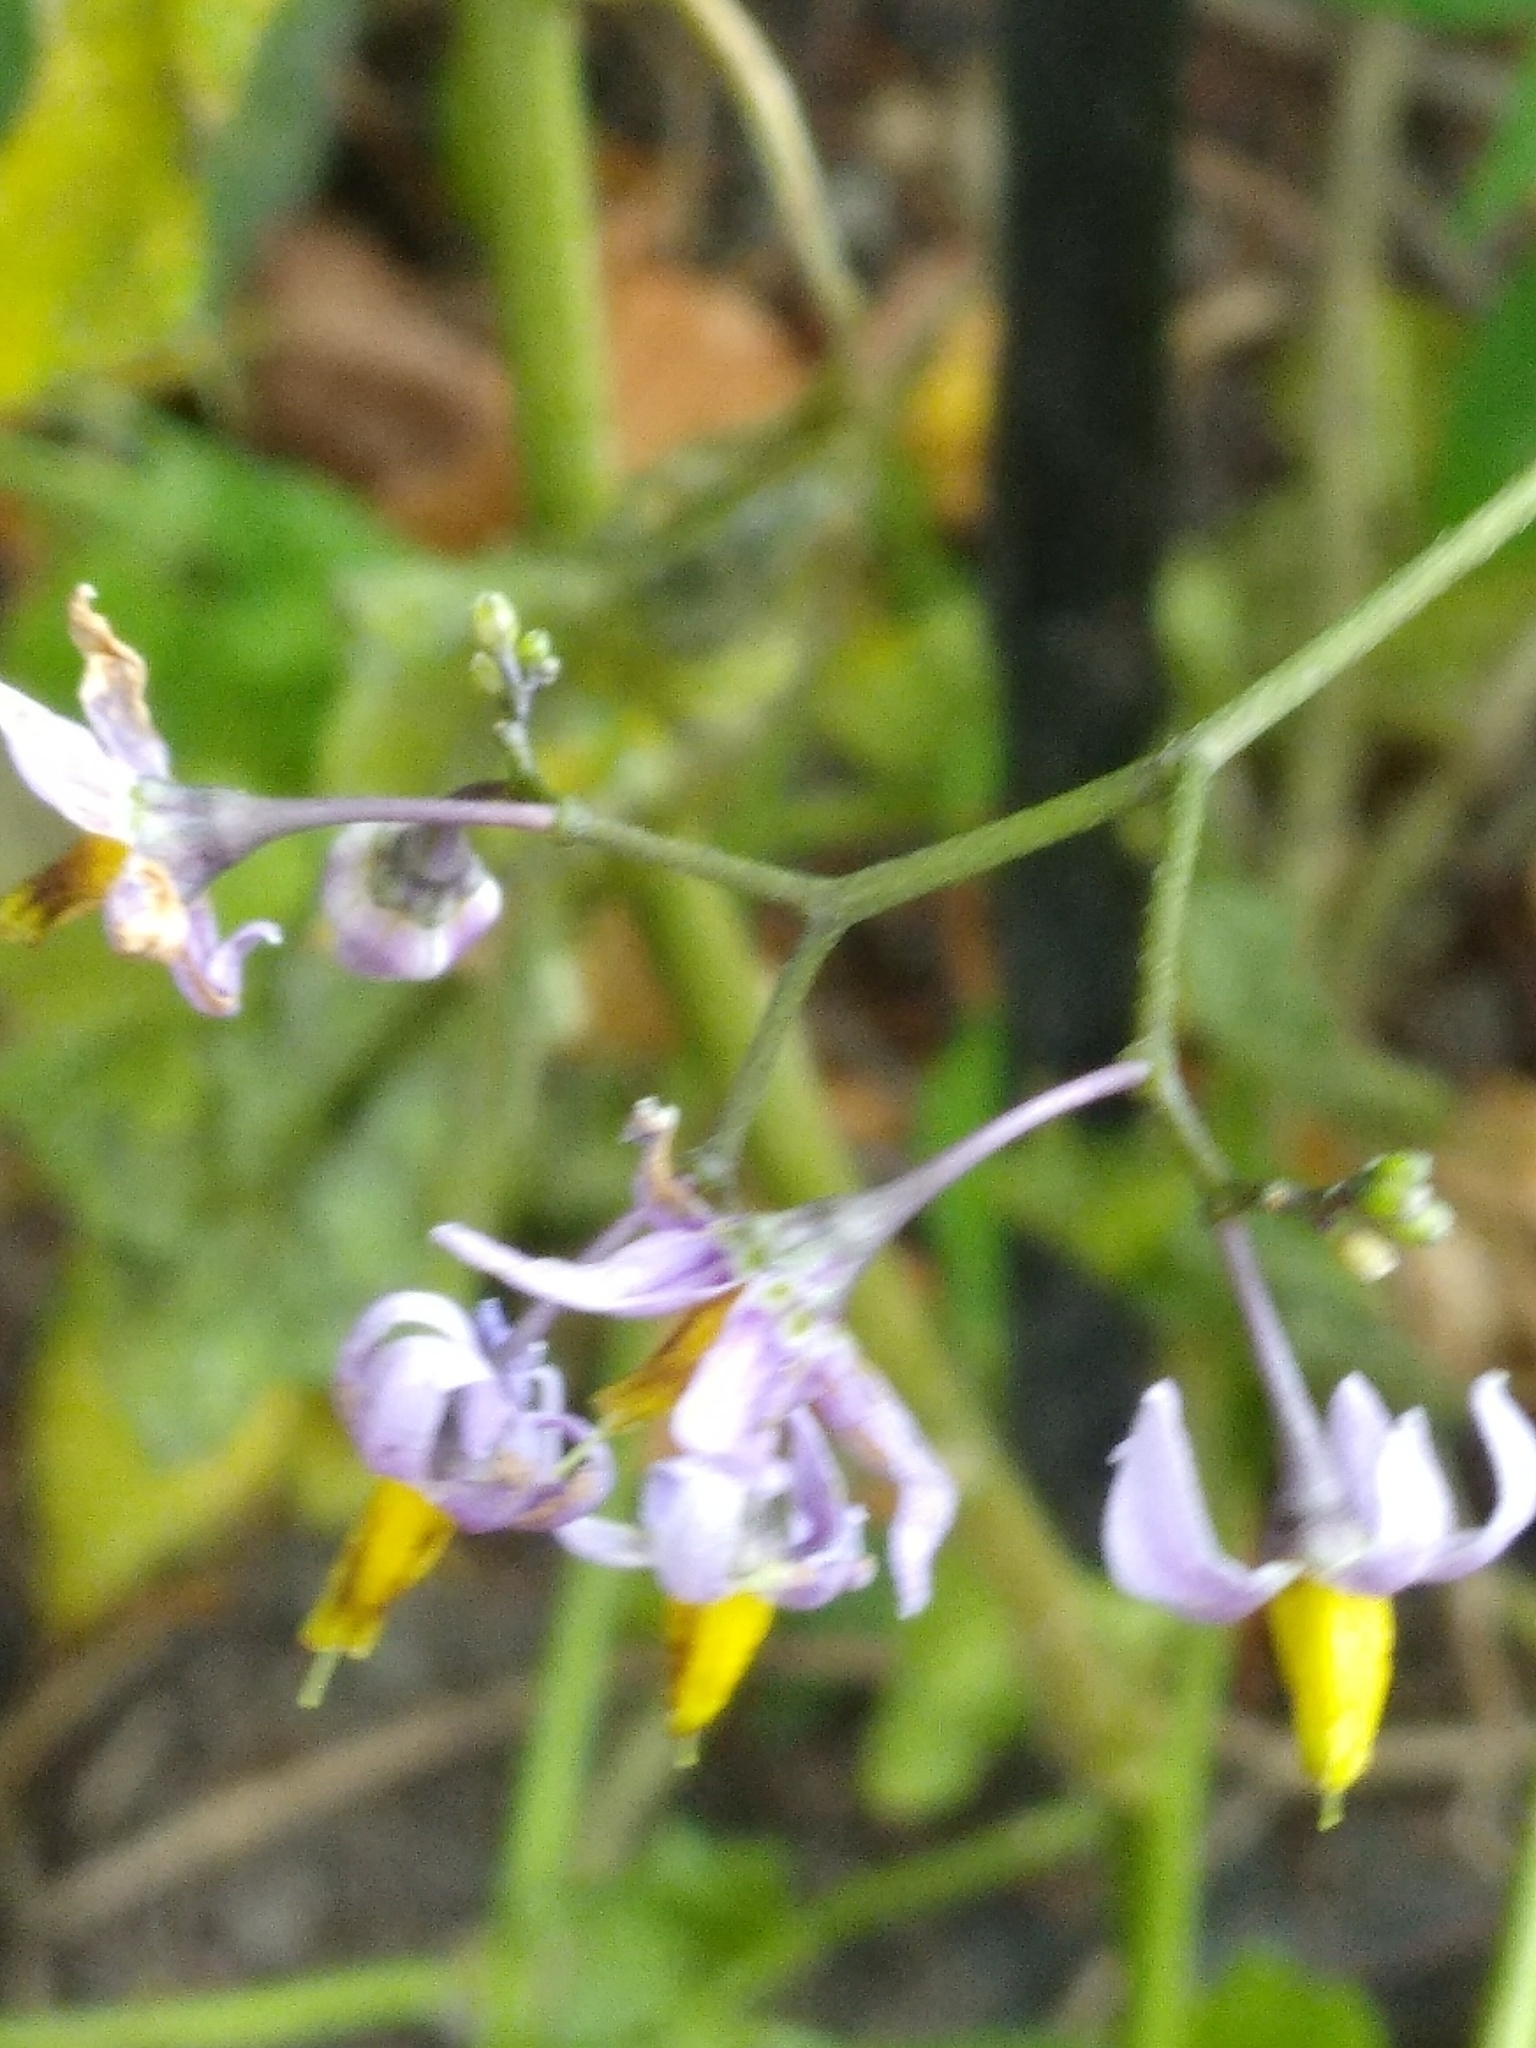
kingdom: Plantae
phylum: Tracheophyta
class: Magnoliopsida
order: Solanales
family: Solanaceae
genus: Solanum
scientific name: Solanum dulcamara
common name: Climbing nightshade
